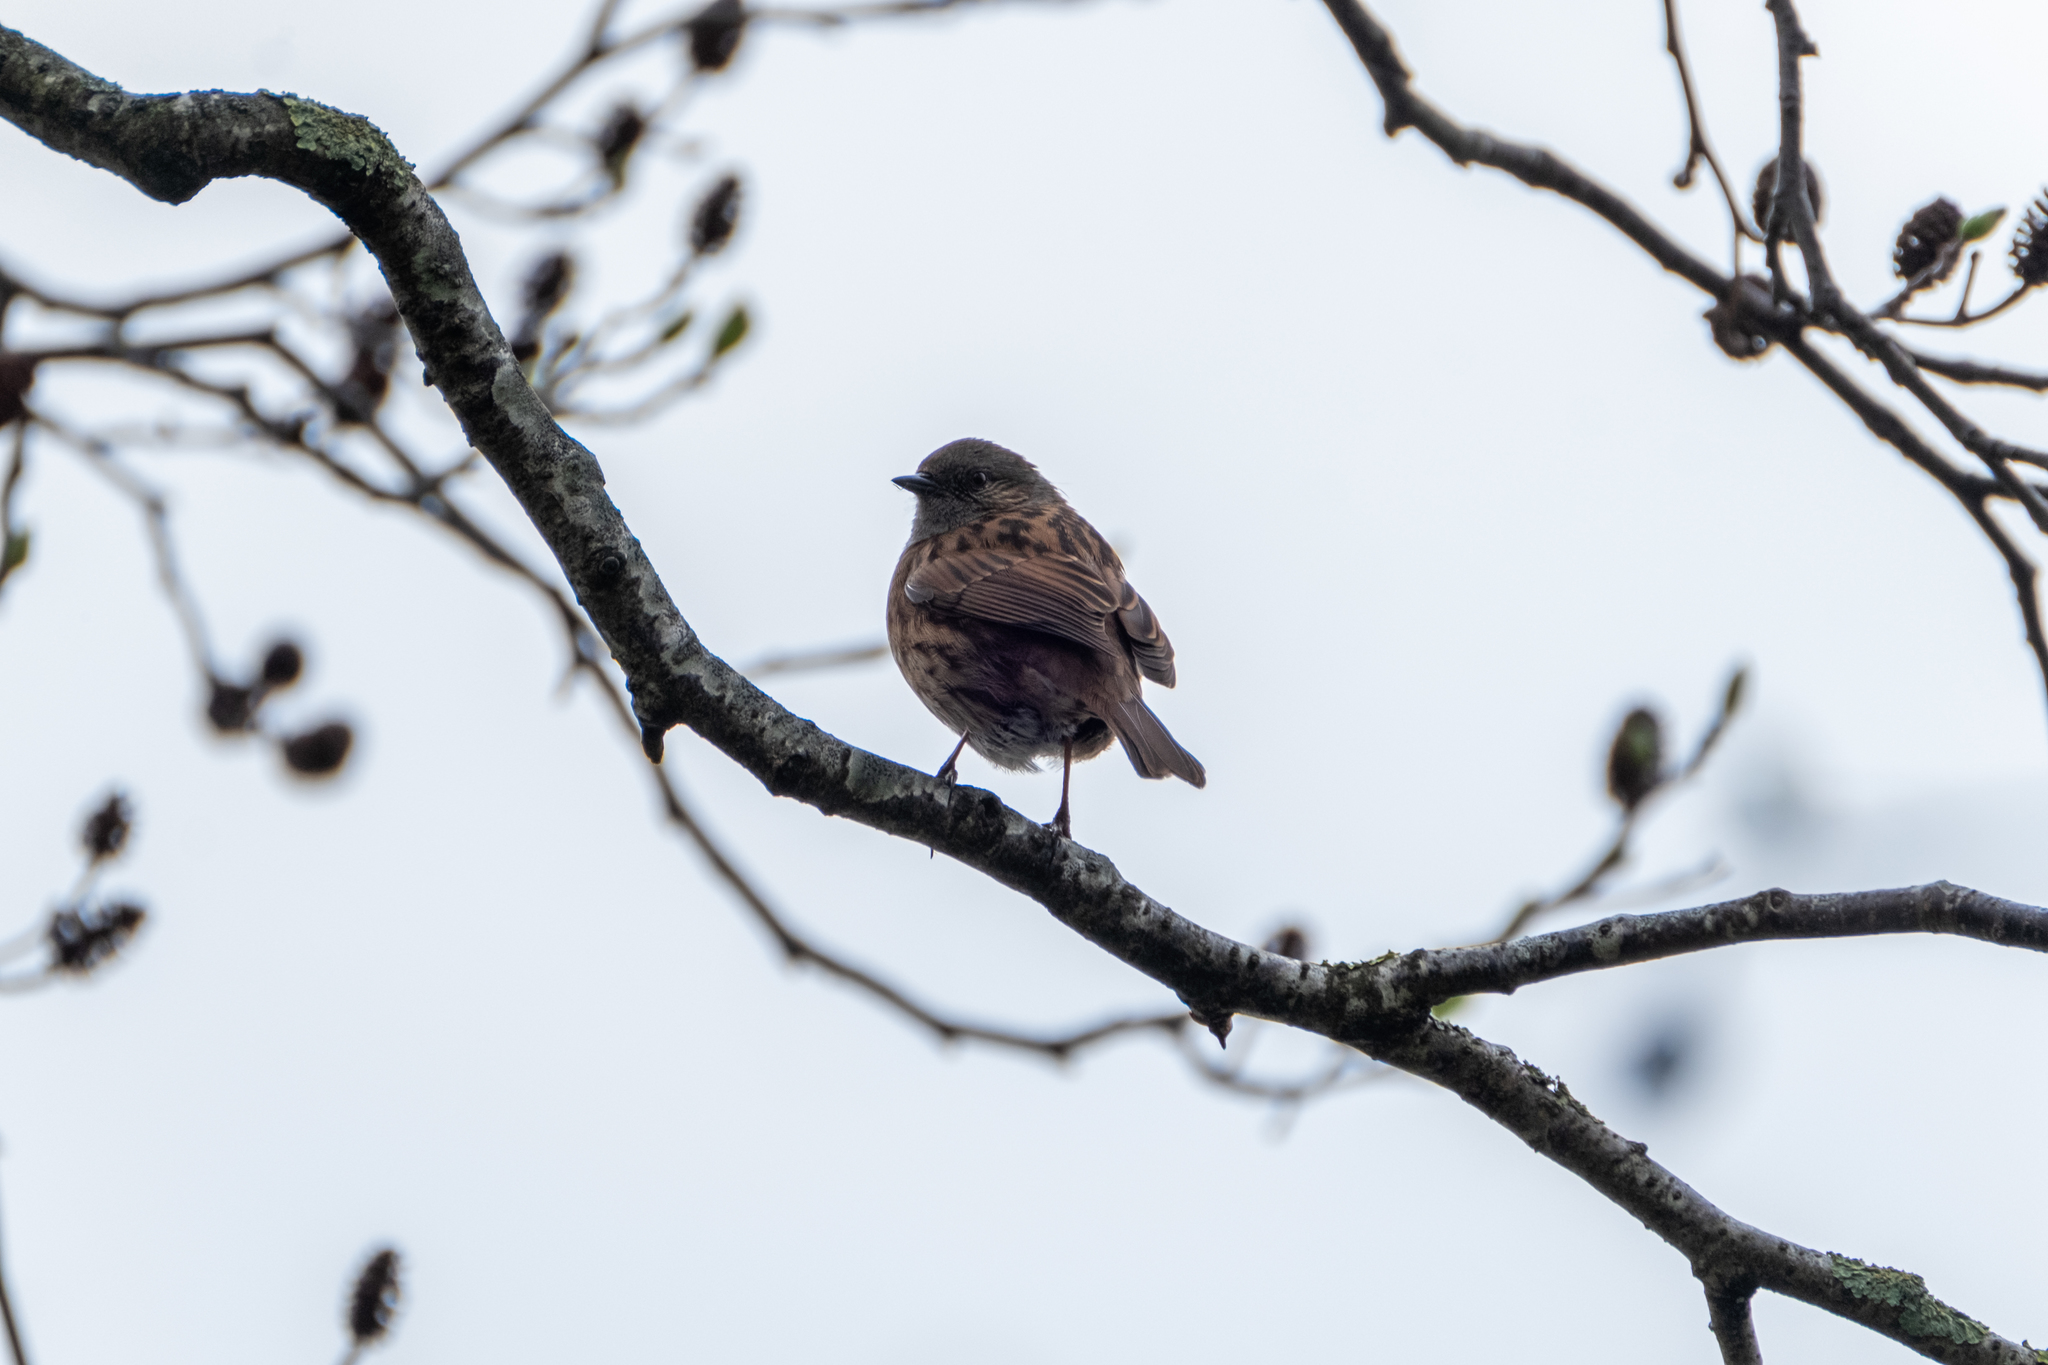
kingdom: Animalia
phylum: Chordata
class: Aves
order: Passeriformes
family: Prunellidae
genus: Prunella
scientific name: Prunella modularis
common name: Dunnock
